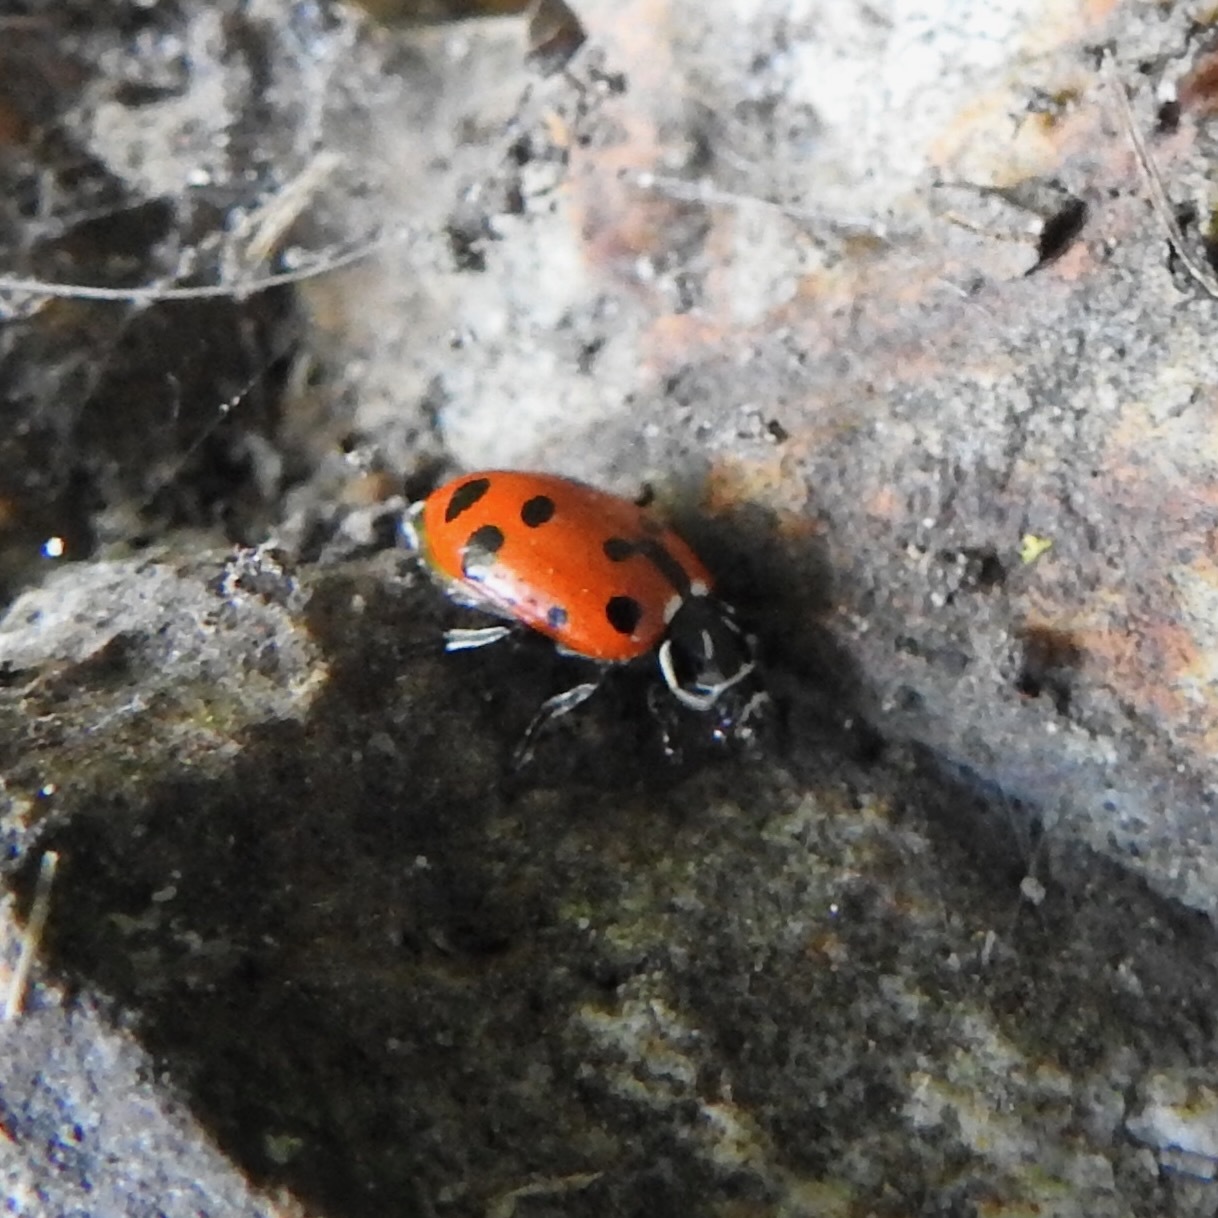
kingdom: Animalia
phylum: Arthropoda
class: Insecta
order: Coleoptera
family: Coccinellidae
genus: Hippodamia
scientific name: Hippodamia convergens
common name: Convergent lady beetle
